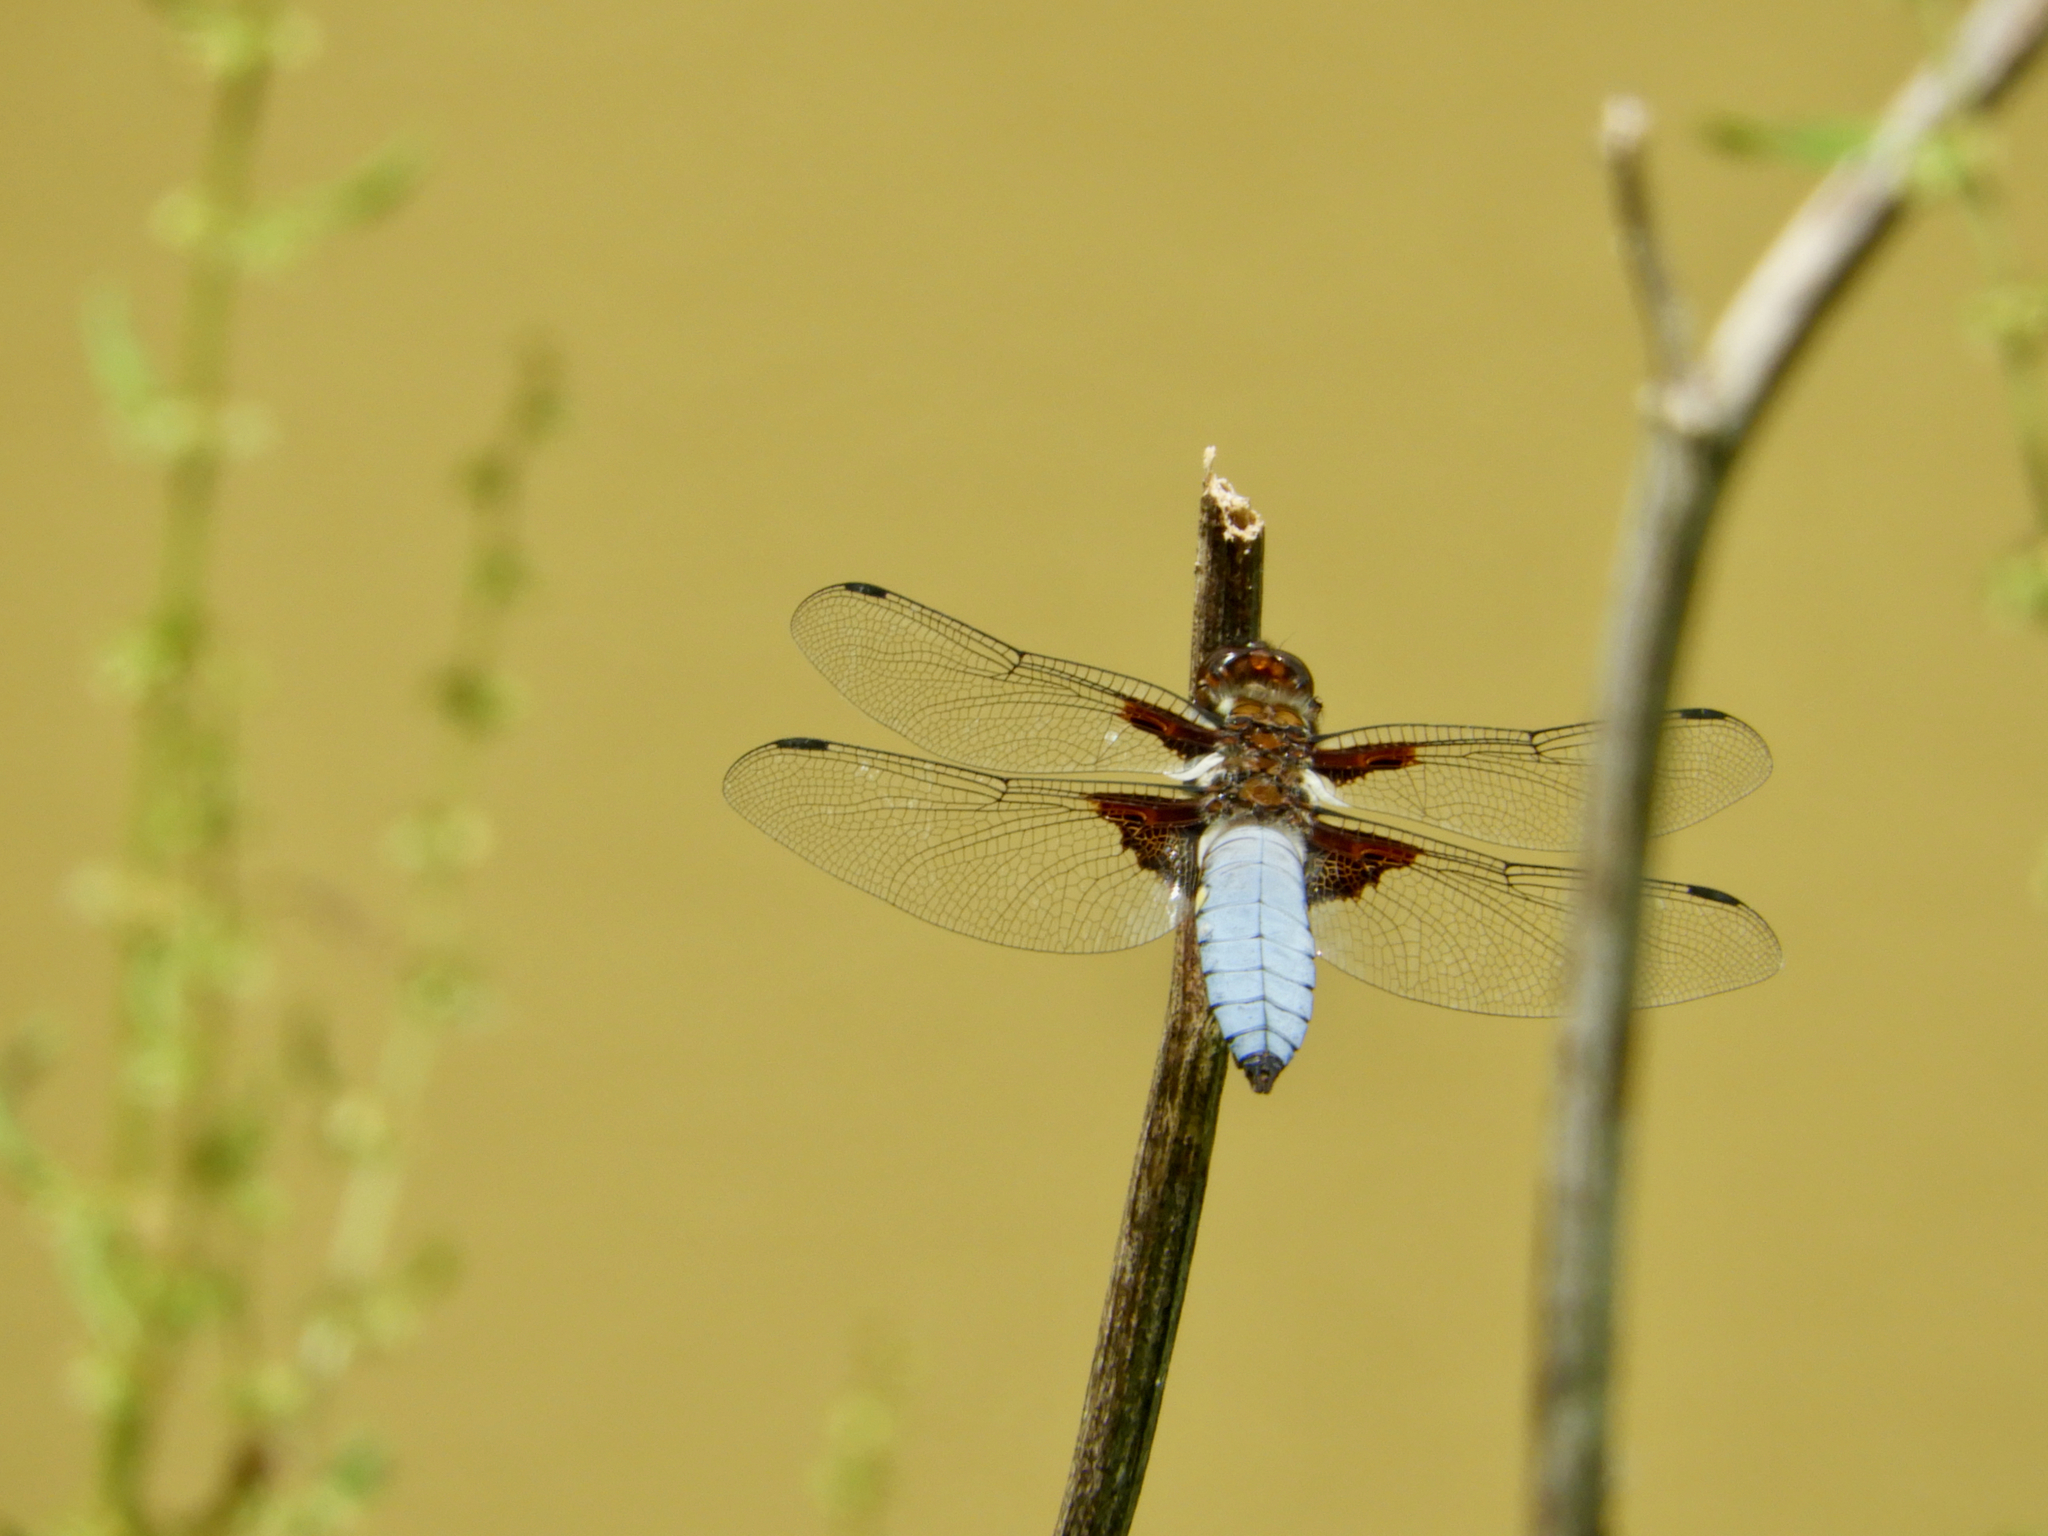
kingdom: Animalia
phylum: Arthropoda
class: Insecta
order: Odonata
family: Libellulidae
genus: Libellula
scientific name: Libellula depressa
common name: Broad-bodied chaser
